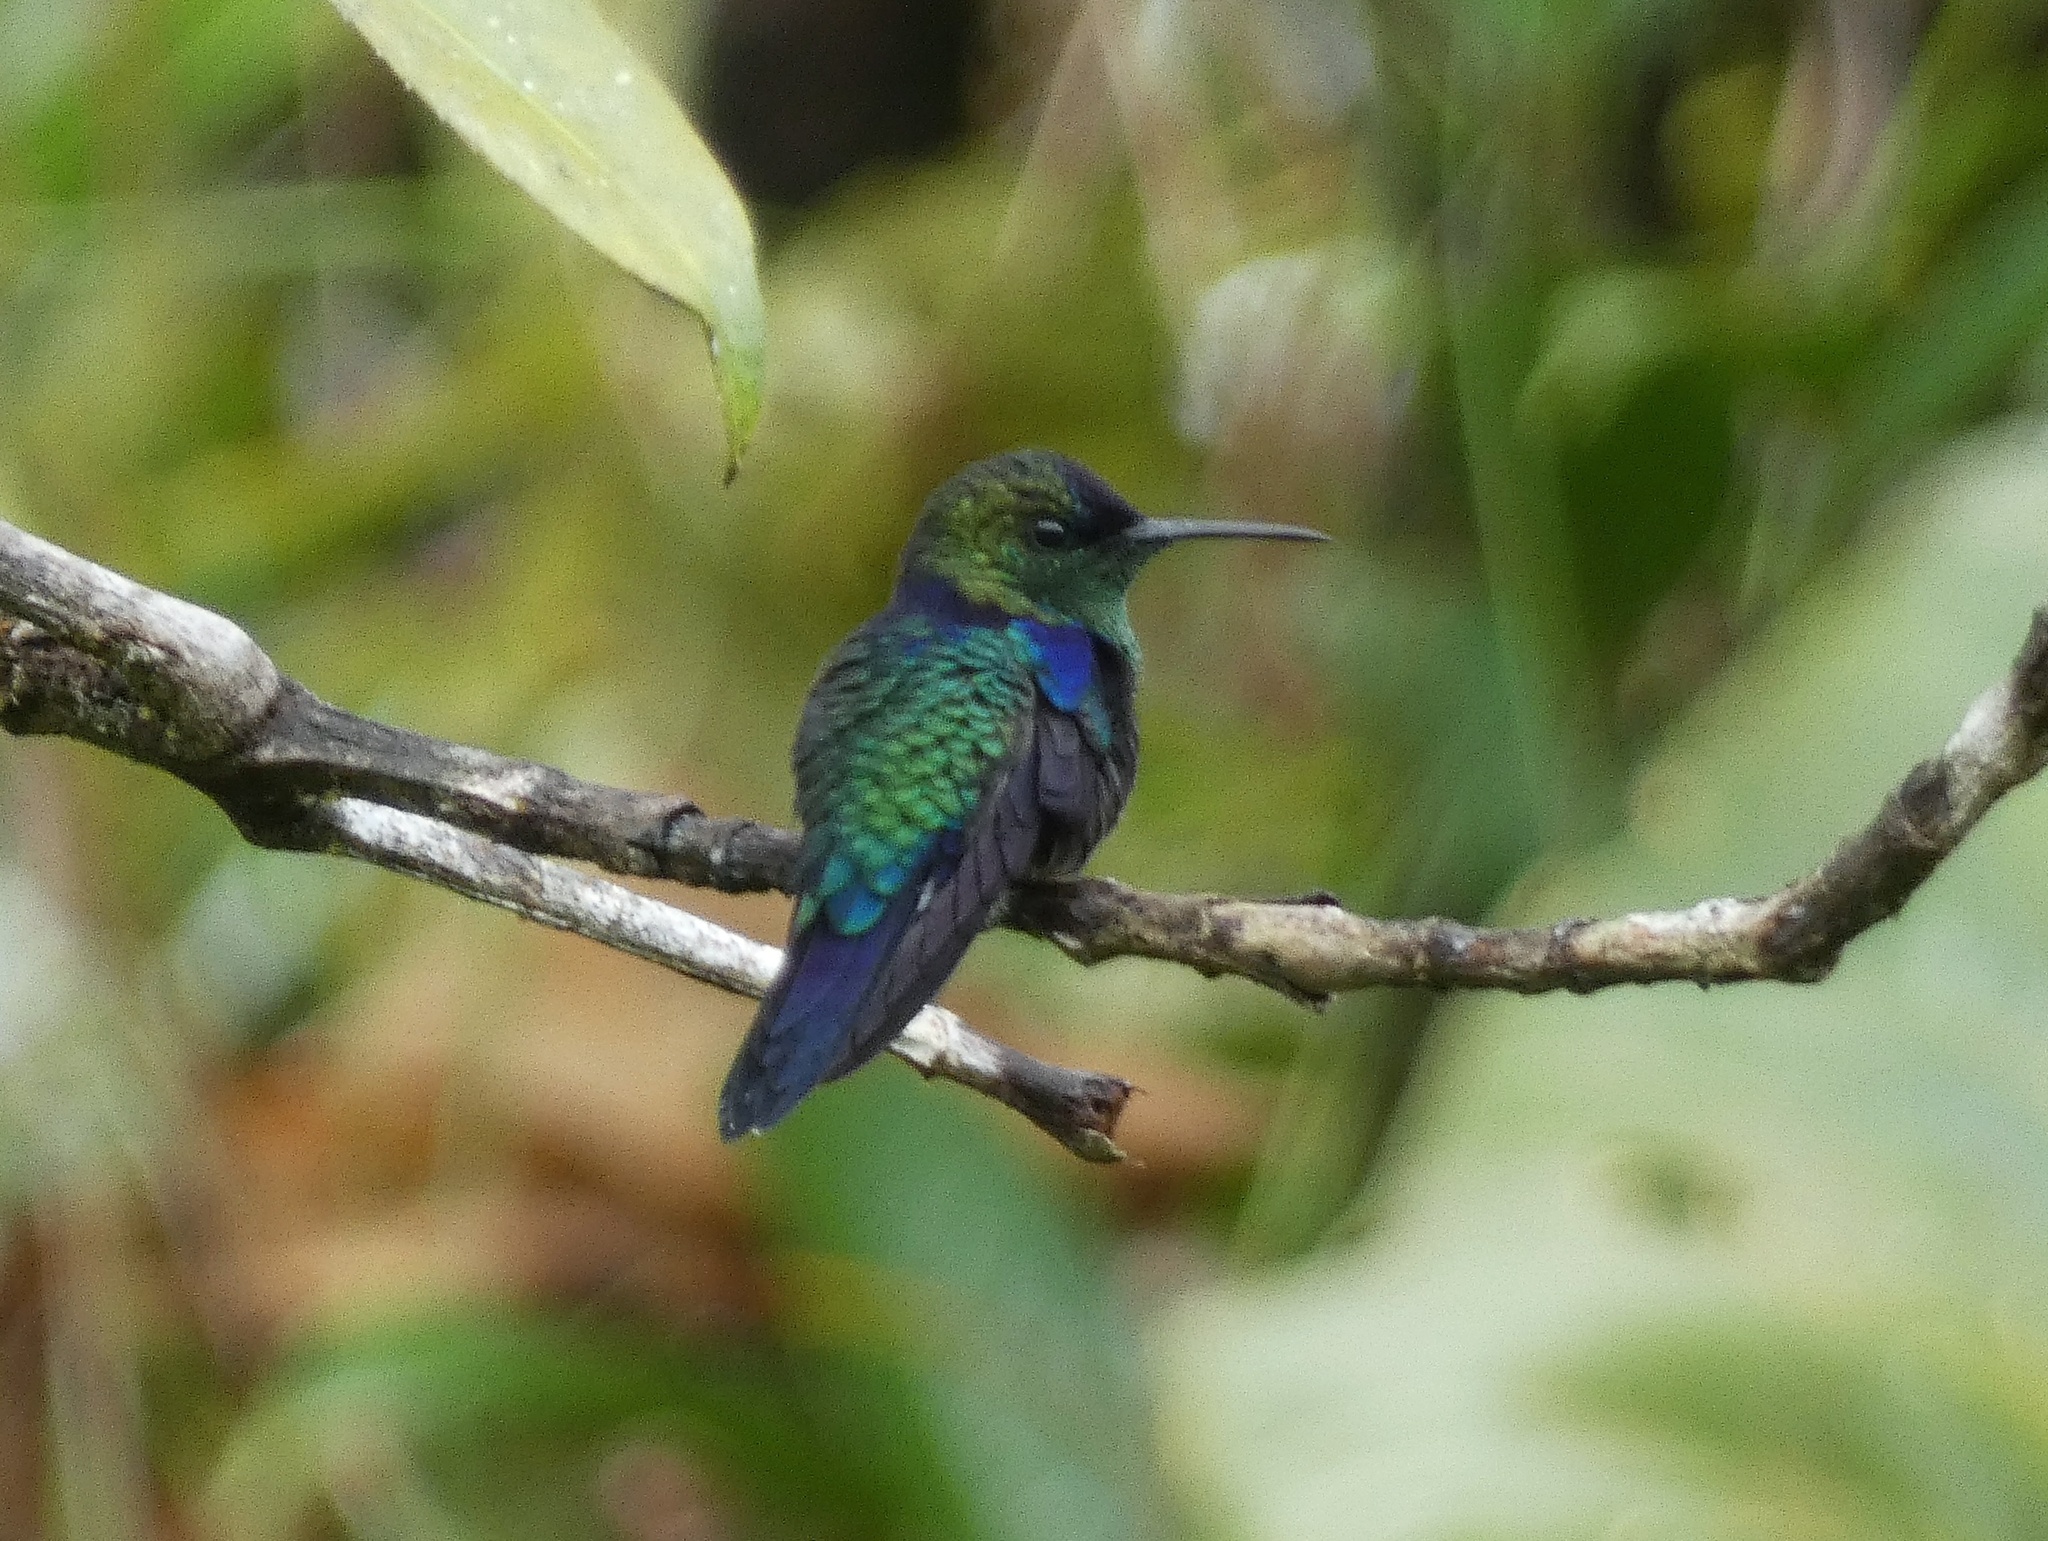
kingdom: Animalia
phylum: Chordata
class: Aves
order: Apodiformes
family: Trochilidae
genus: Thalurania
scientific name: Thalurania colombica
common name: Crowned woodnymph
